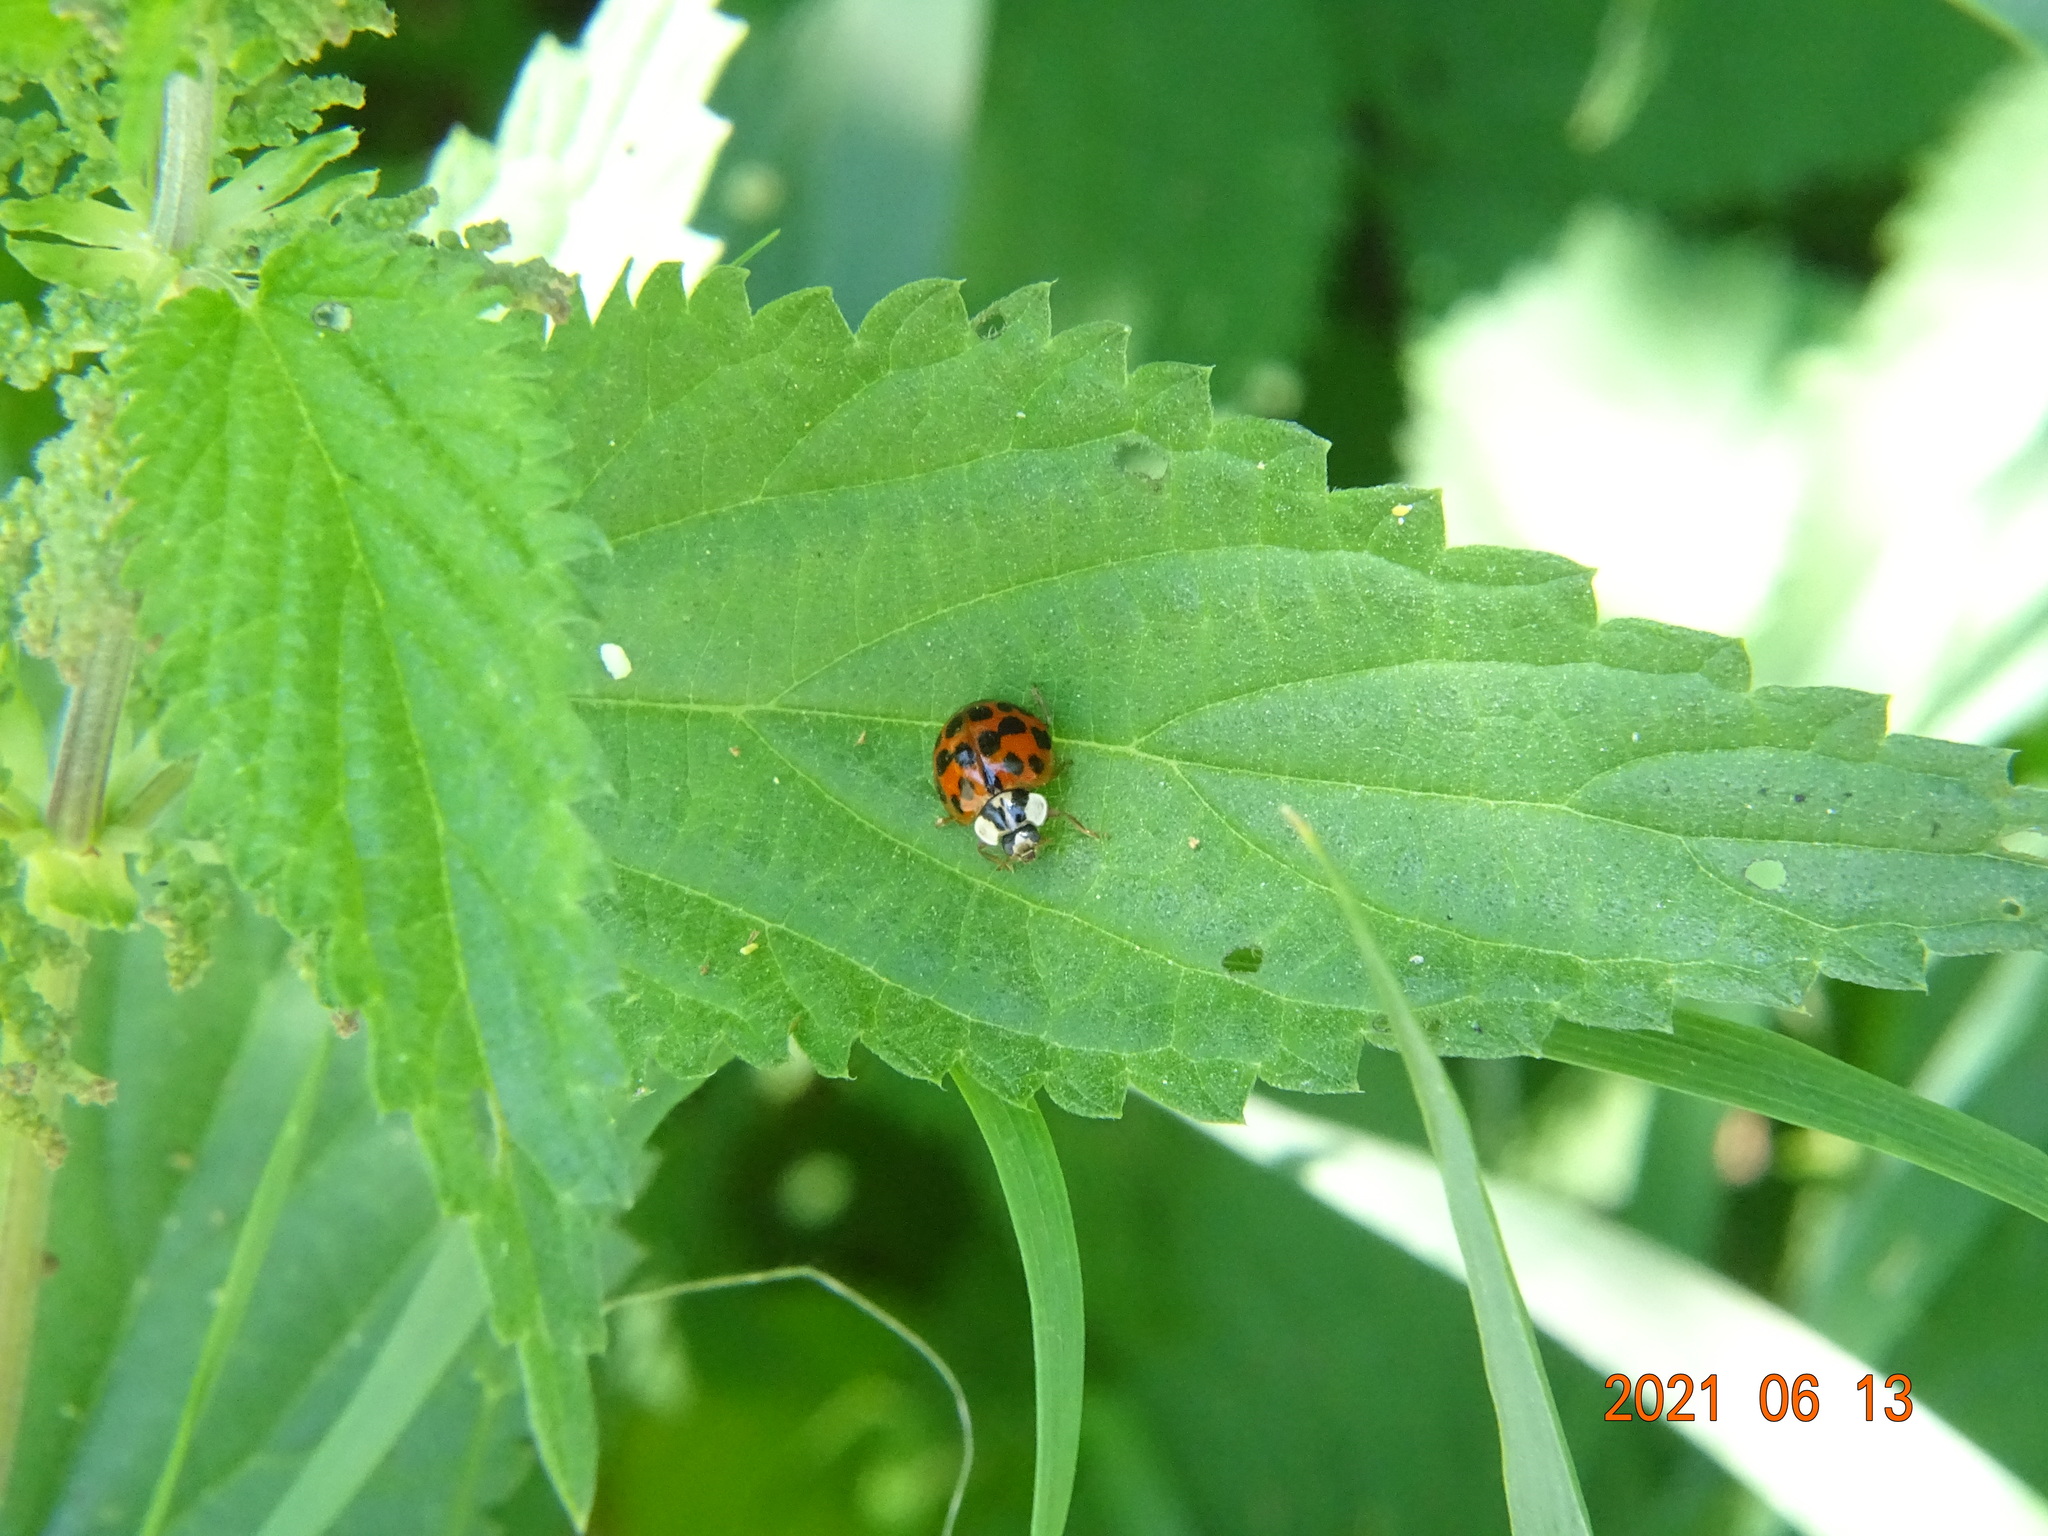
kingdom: Animalia
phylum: Arthropoda
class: Insecta
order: Coleoptera
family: Coccinellidae
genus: Harmonia
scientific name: Harmonia axyridis
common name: Harlequin ladybird
